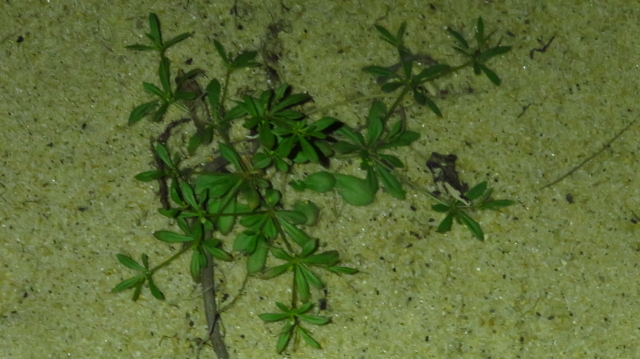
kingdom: Plantae
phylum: Tracheophyta
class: Magnoliopsida
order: Caryophyllales
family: Molluginaceae
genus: Mollugo
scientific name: Mollugo verticillata
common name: Green carpetweed
